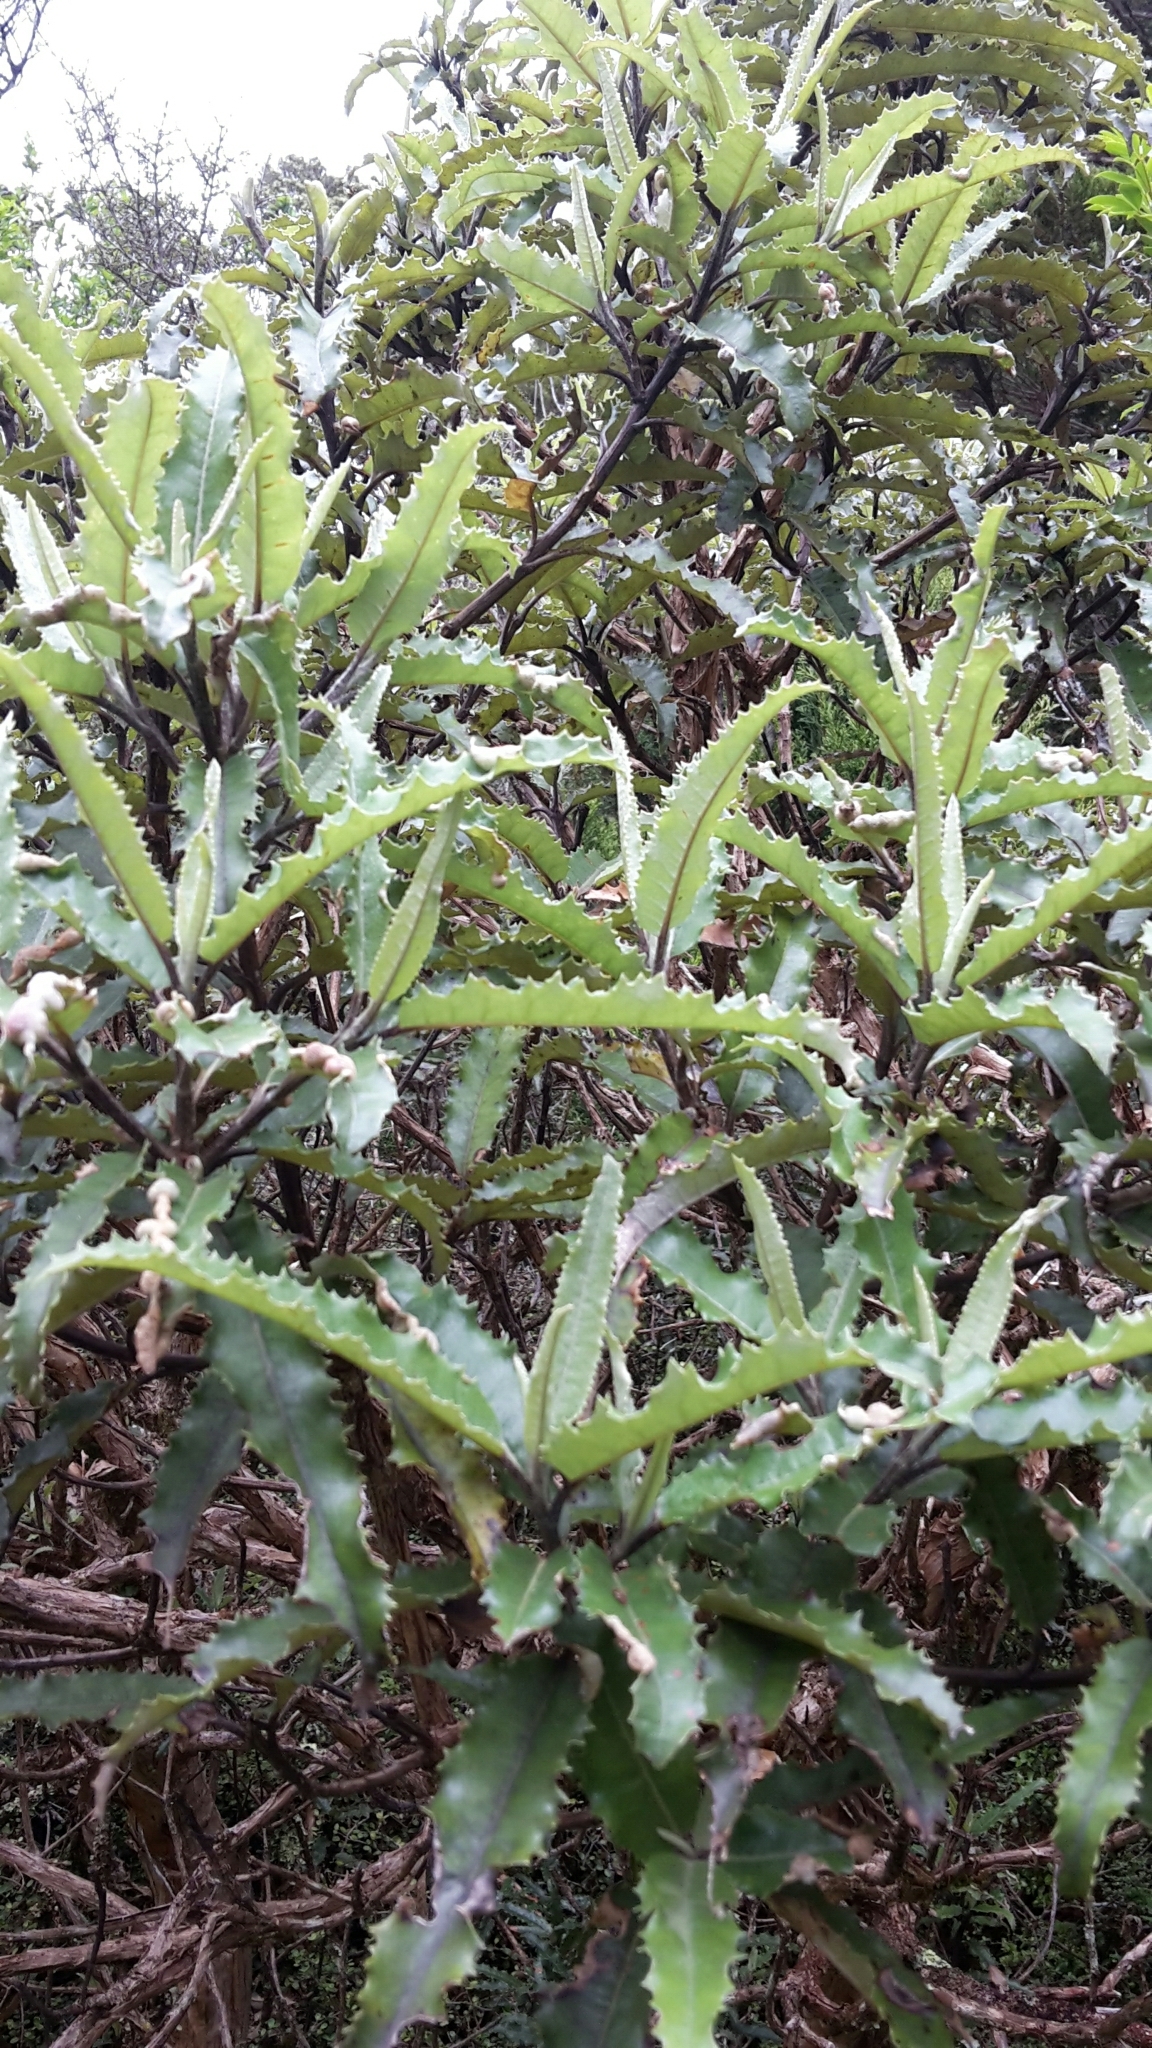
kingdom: Plantae
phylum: Tracheophyta
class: Magnoliopsida
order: Asterales
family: Asteraceae
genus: Olearia
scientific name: Olearia ilicifolia
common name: Maori-holly
